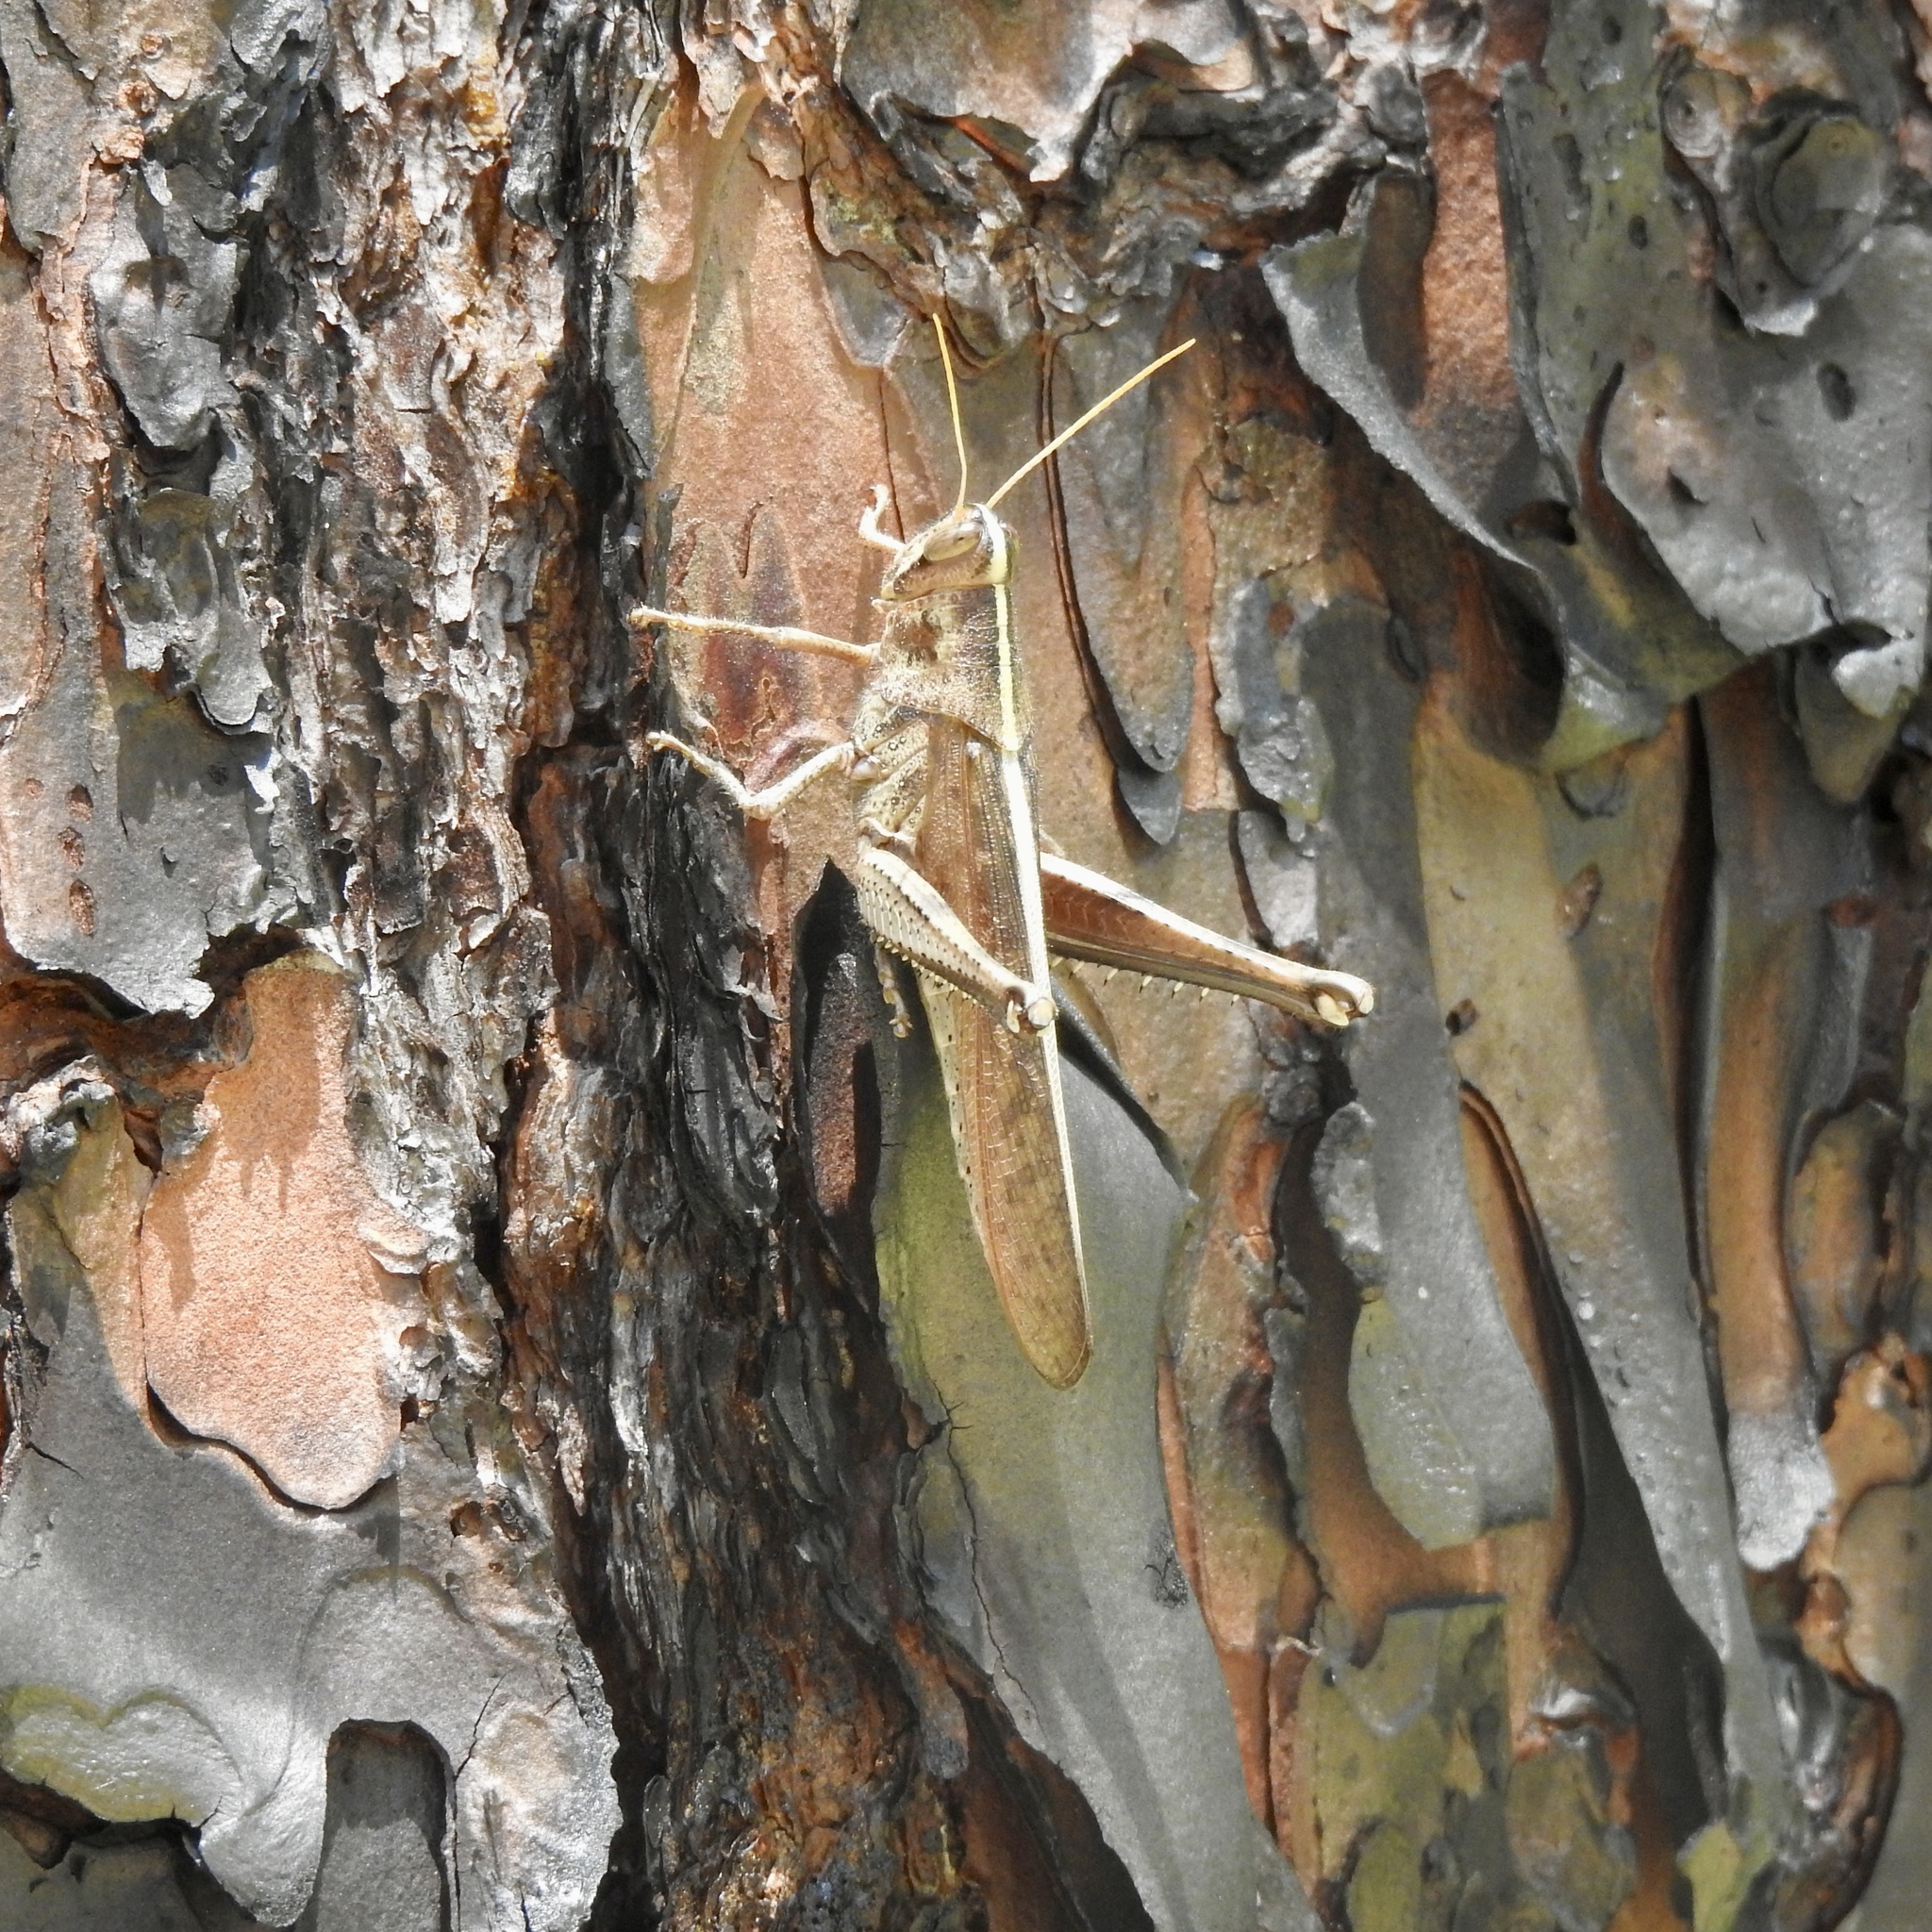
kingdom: Animalia
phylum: Arthropoda
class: Insecta
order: Orthoptera
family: Acrididae
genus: Schistocerca
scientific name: Schistocerca alutacea
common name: Leather-colored bird locust
